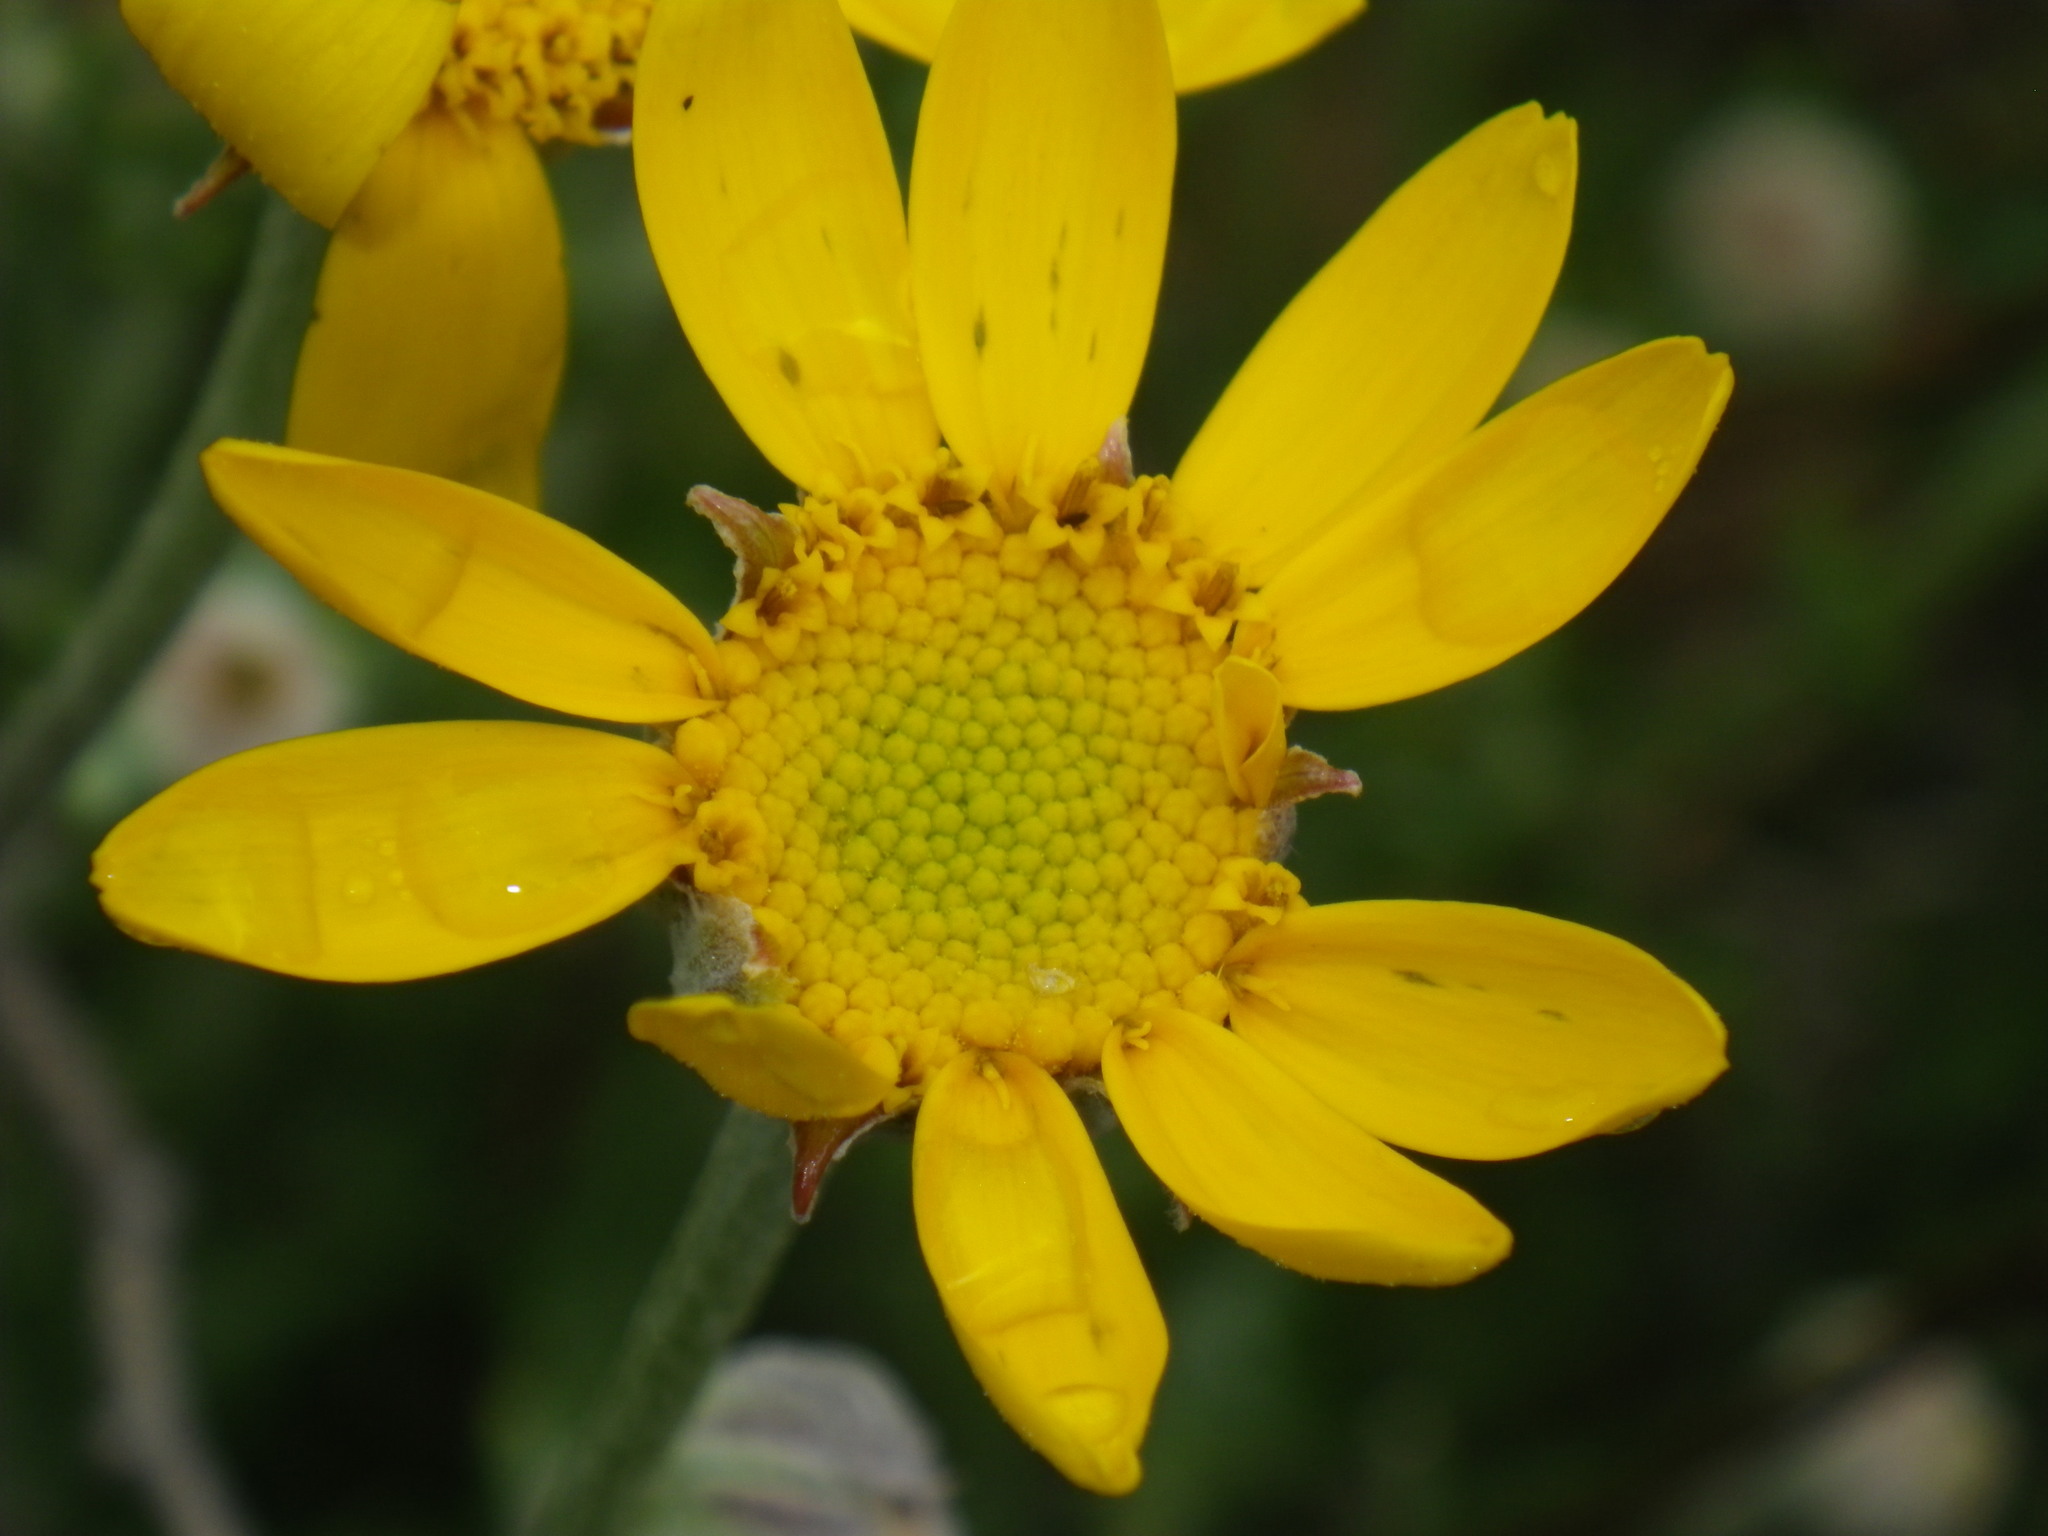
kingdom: Plantae
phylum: Tracheophyta
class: Magnoliopsida
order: Asterales
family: Asteraceae
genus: Eriophyllum
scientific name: Eriophyllum lanatum
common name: Common woolly-sunflower
